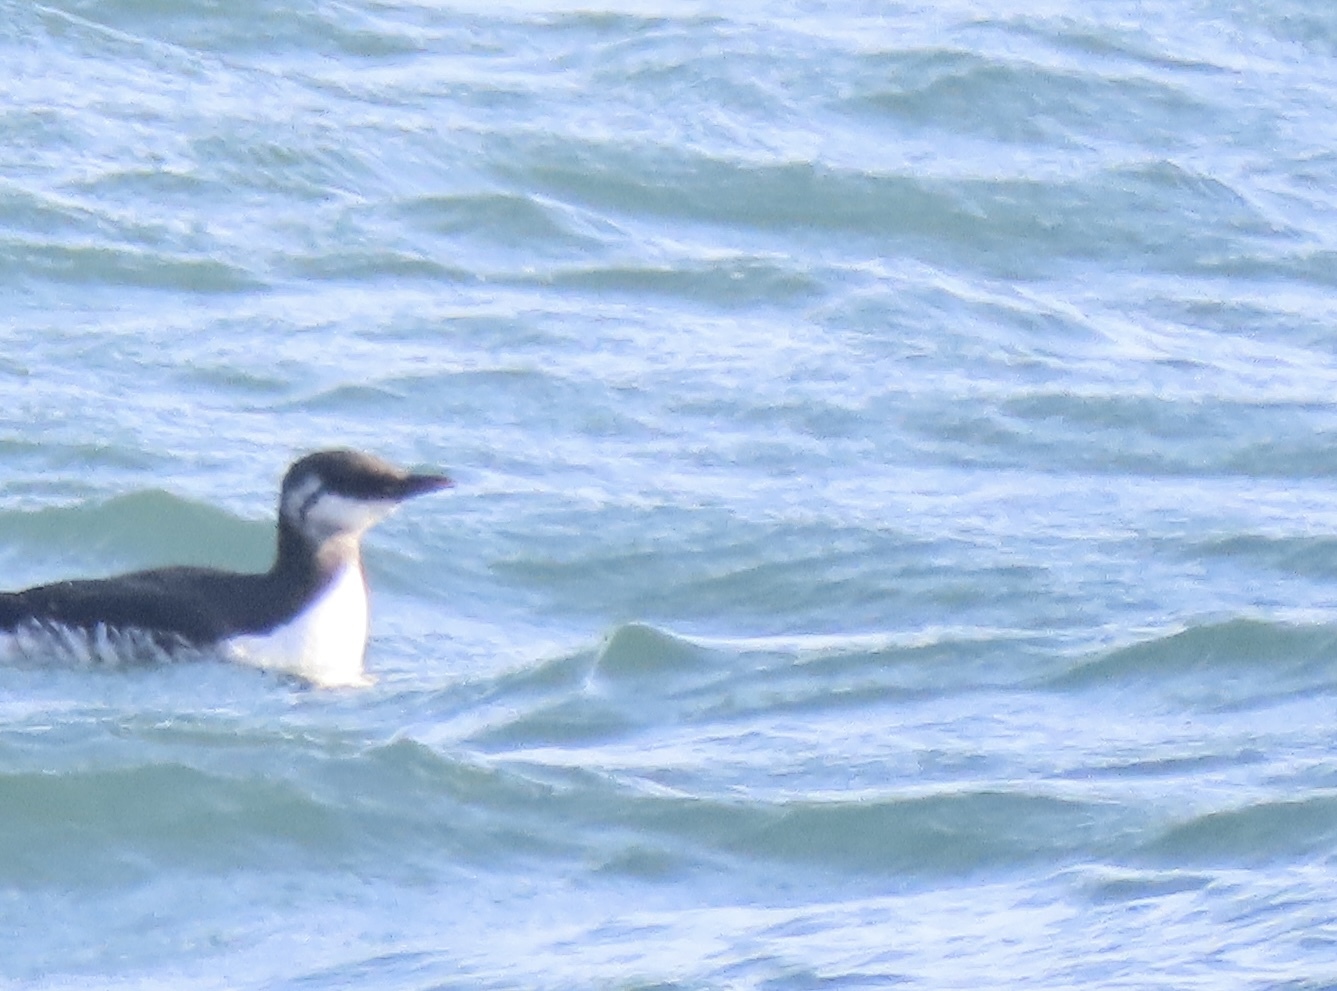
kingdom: Animalia
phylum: Chordata
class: Aves
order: Charadriiformes
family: Alcidae
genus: Uria
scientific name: Uria aalge
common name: Common murre
